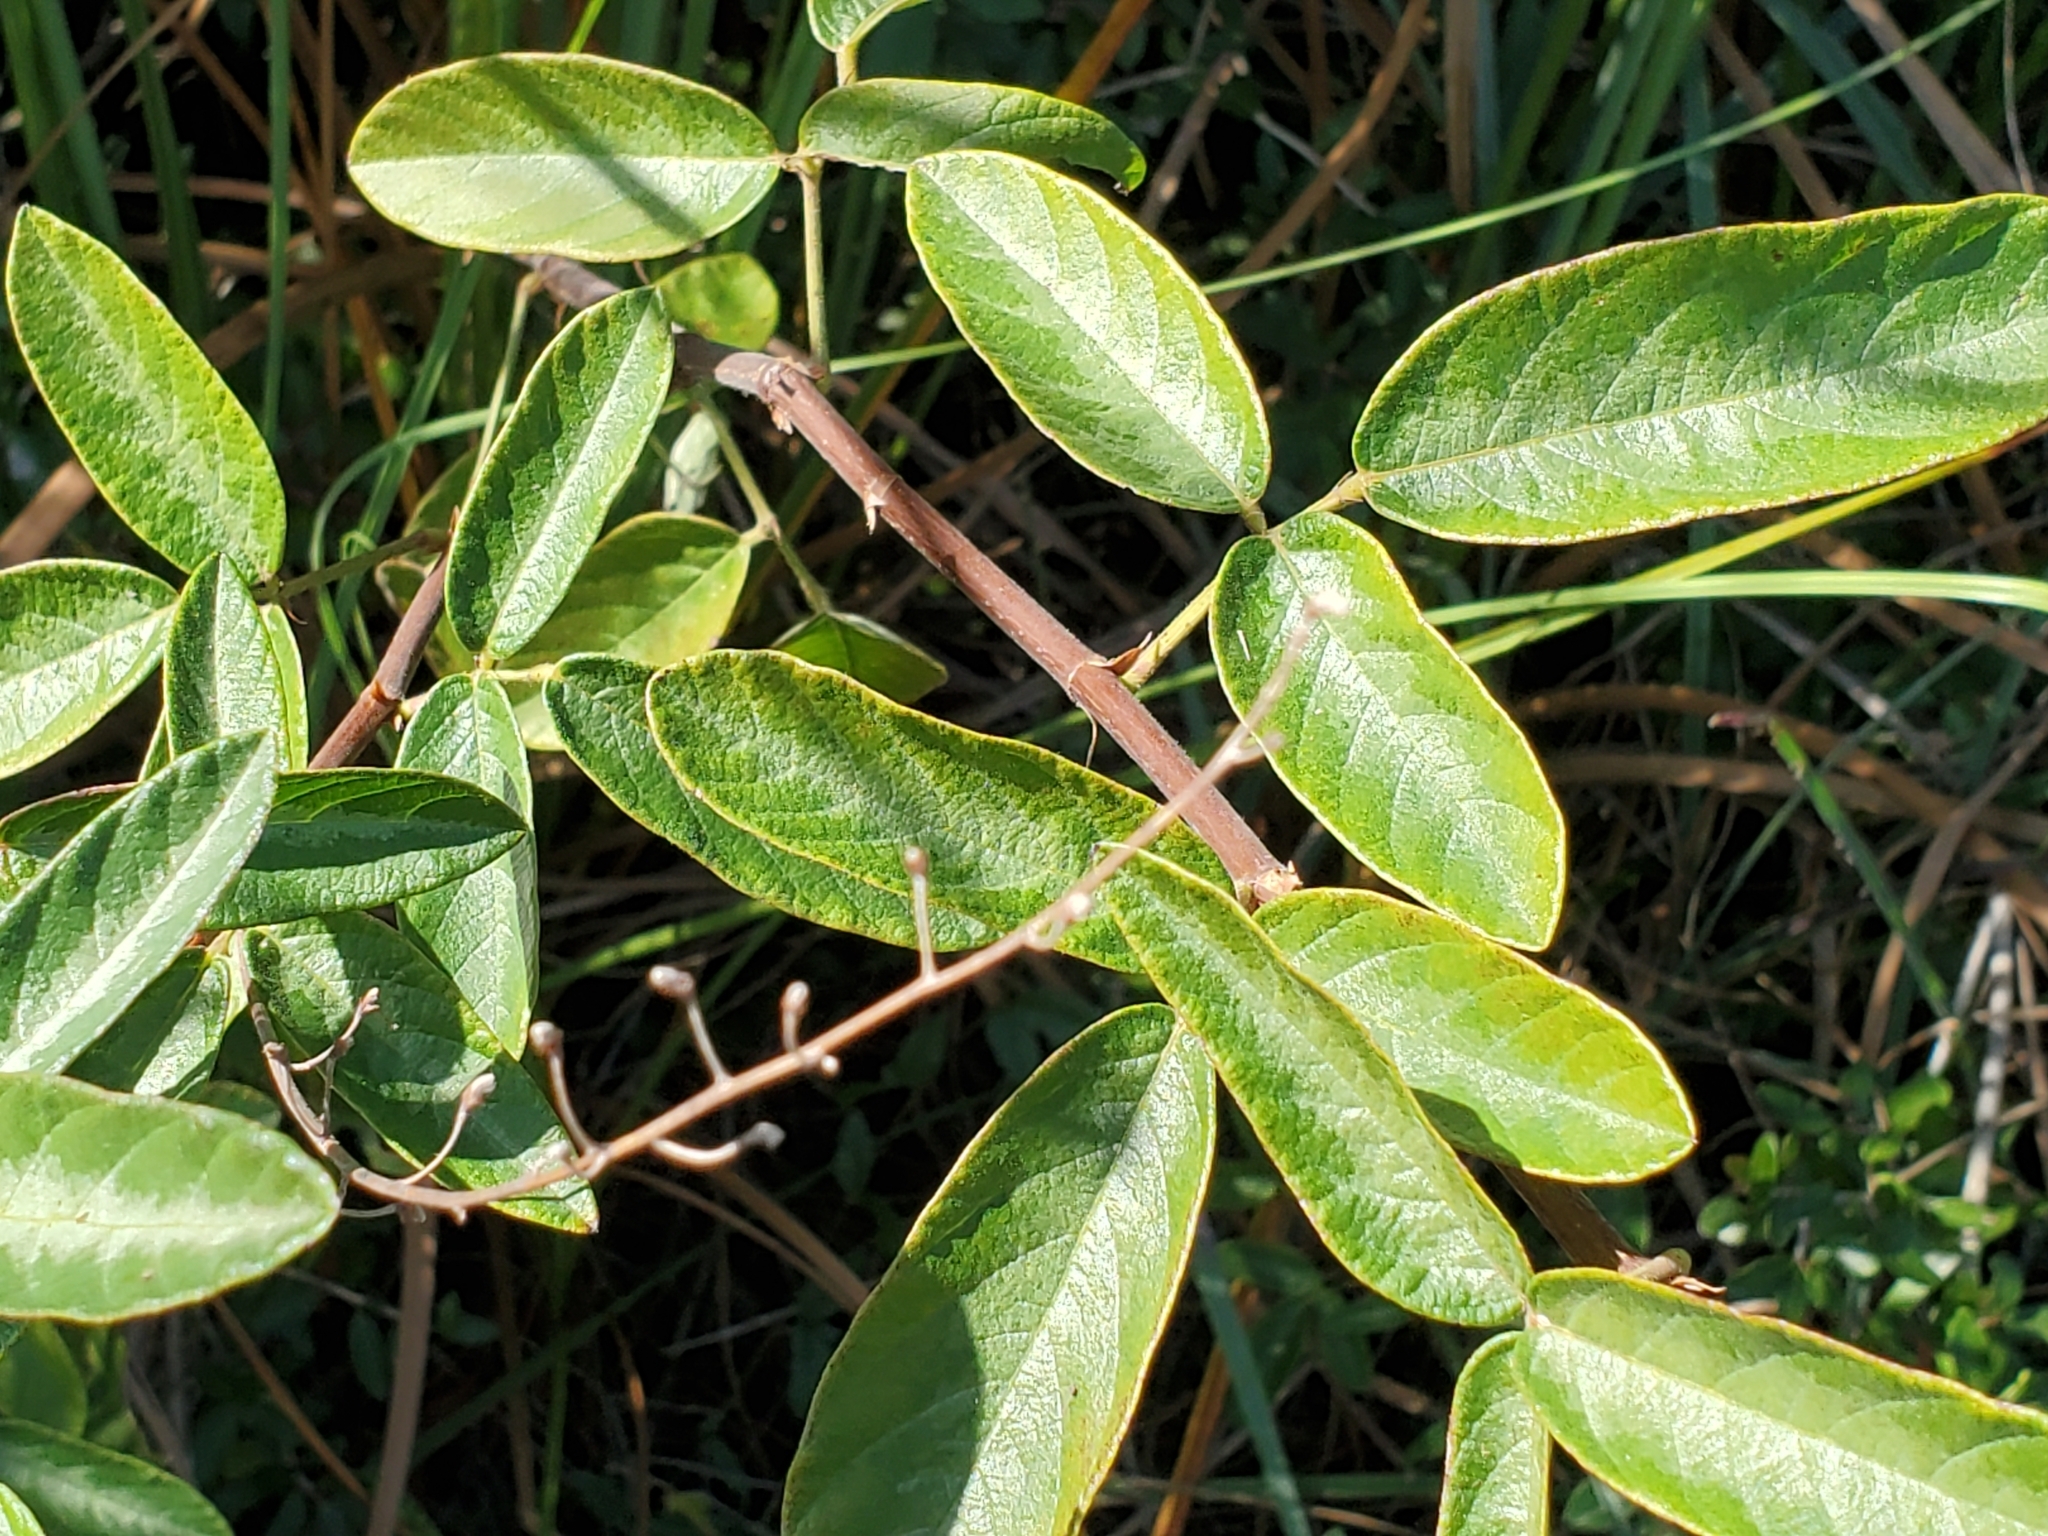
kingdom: Plantae
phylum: Tracheophyta
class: Magnoliopsida
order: Fabales
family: Fabaceae
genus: Desmodium
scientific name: Desmodium incanum
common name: Tickclover
